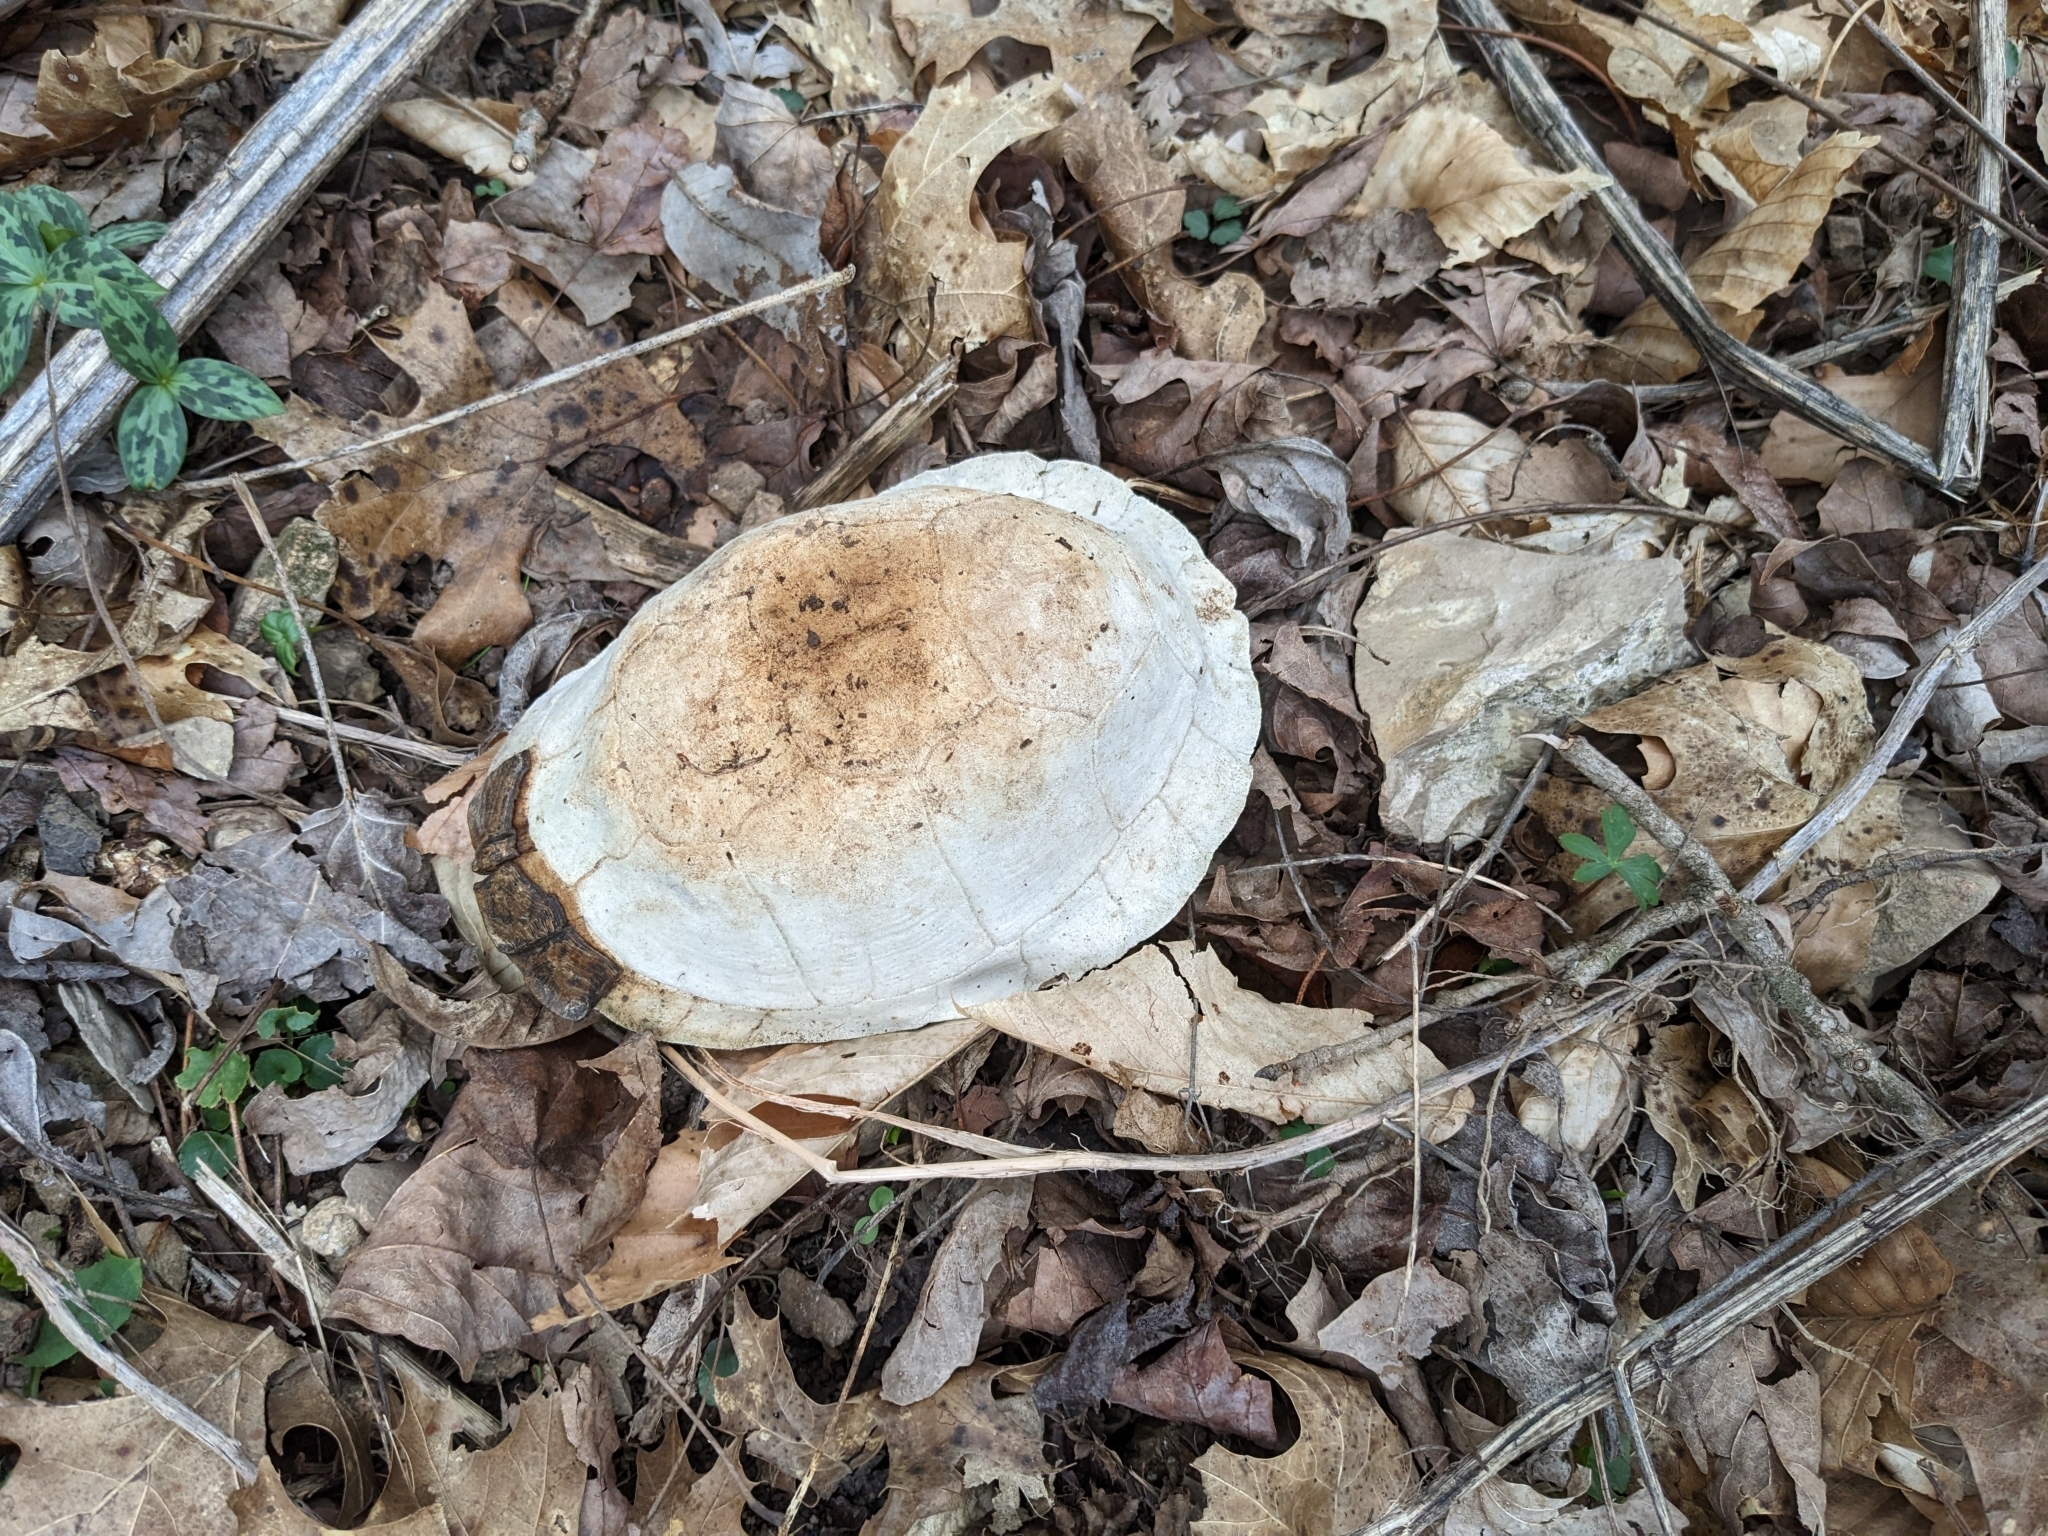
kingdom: Animalia
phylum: Chordata
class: Testudines
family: Emydidae
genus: Terrapene
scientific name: Terrapene carolina
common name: Common box turtle
